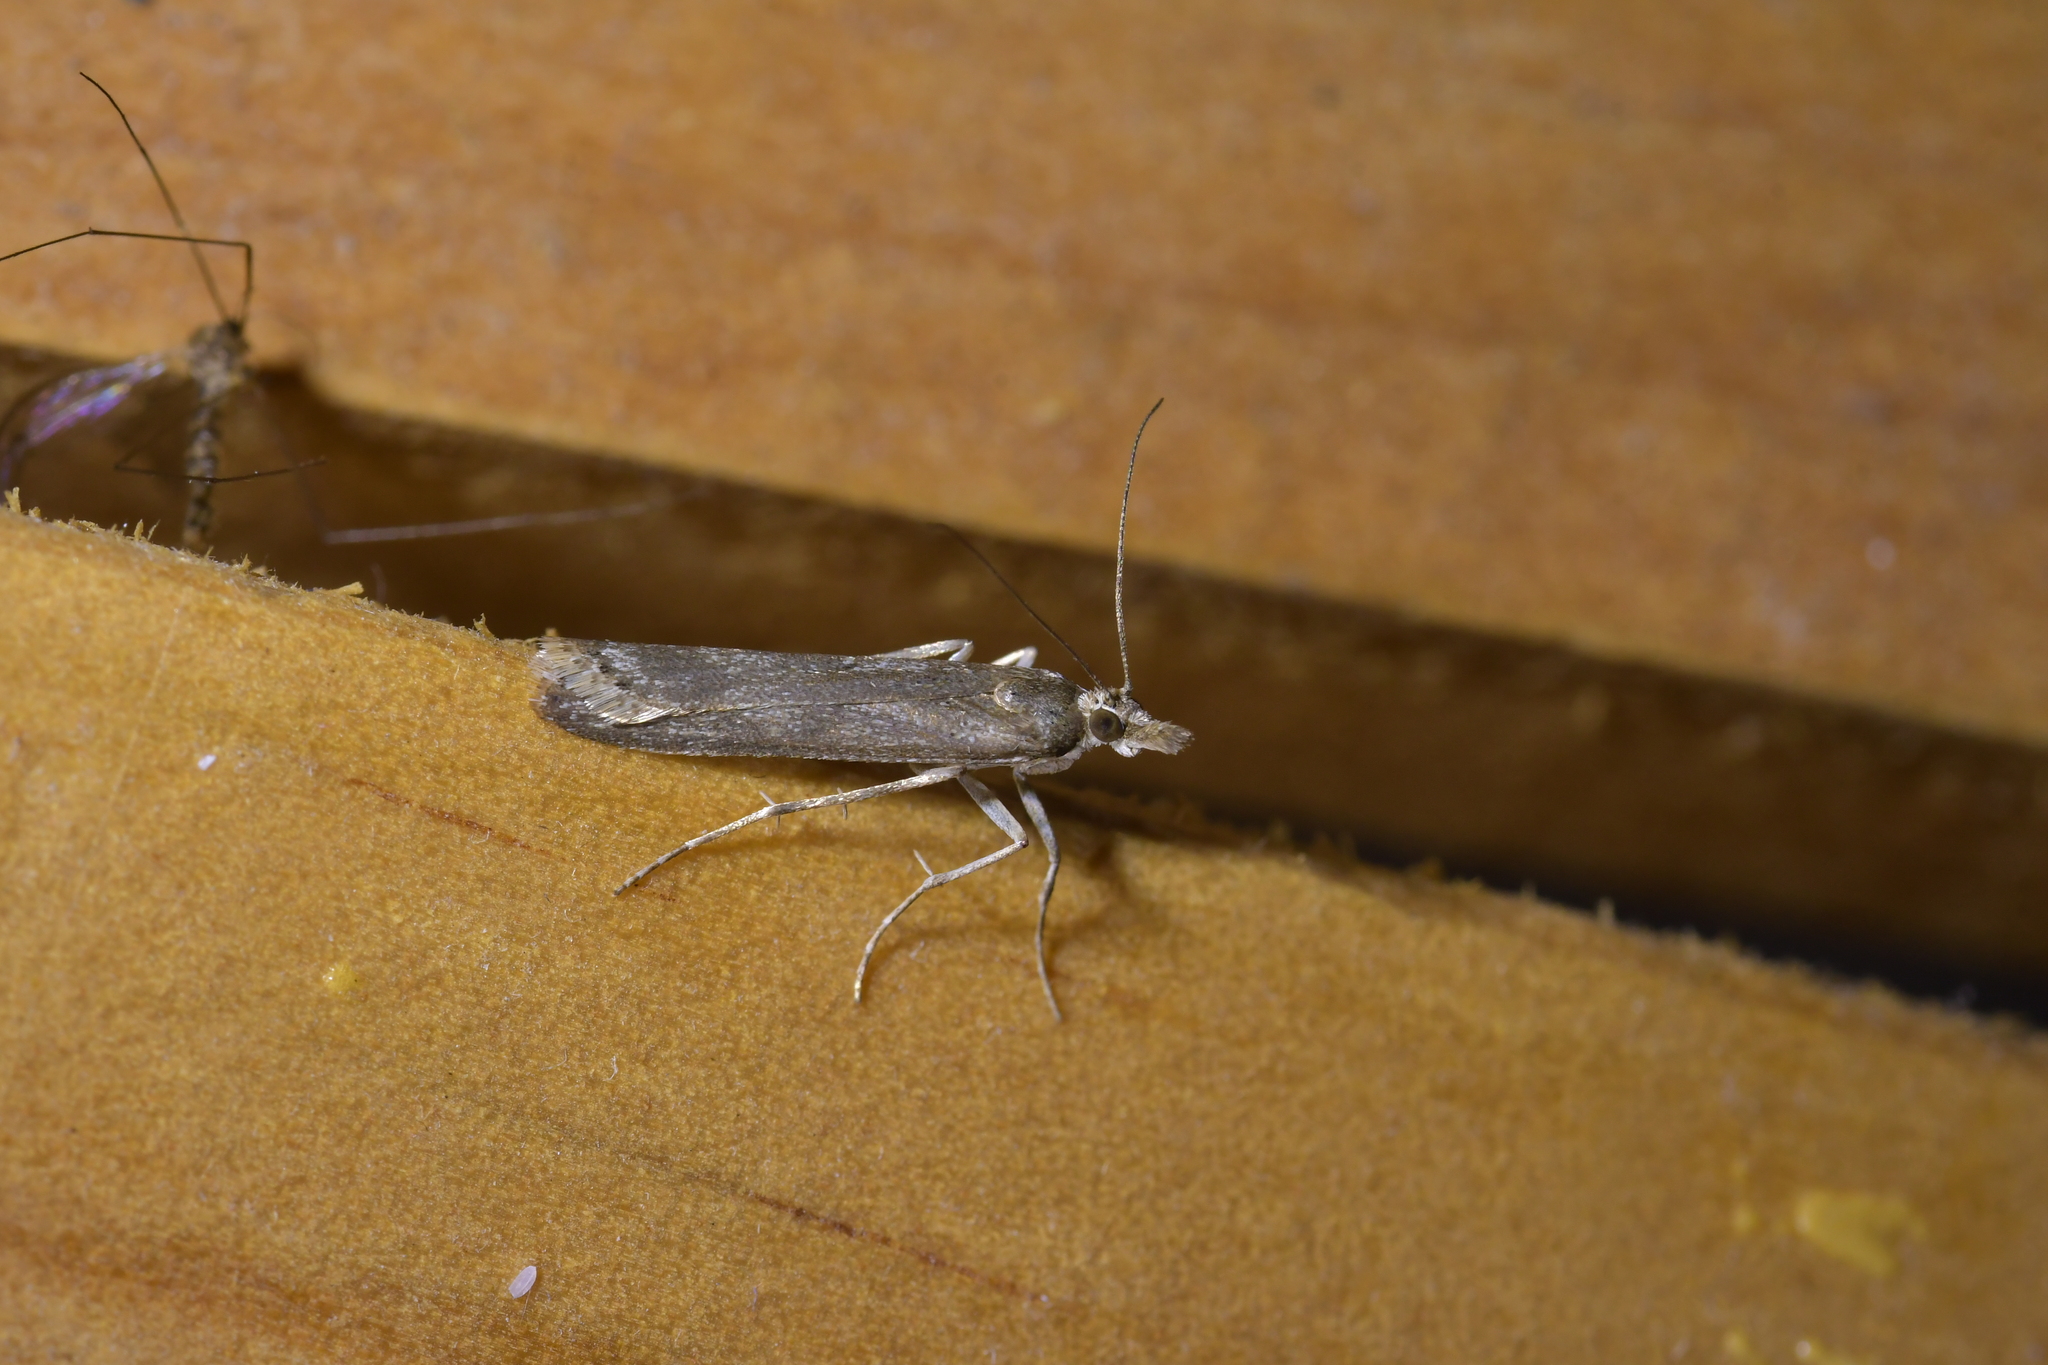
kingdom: Animalia
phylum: Arthropoda
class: Insecta
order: Lepidoptera
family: Crambidae
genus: Eudonia
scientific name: Eudonia leptalea
